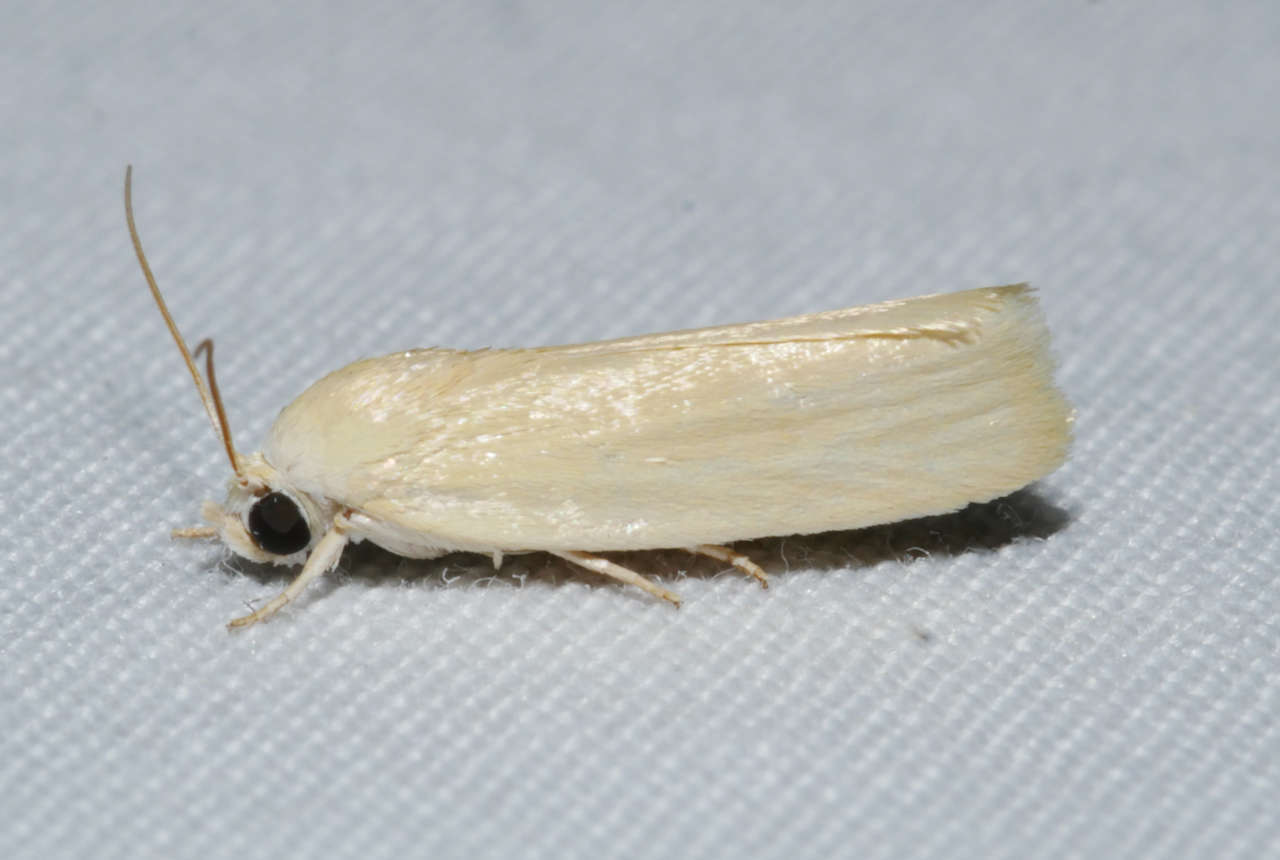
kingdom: Animalia
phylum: Arthropoda
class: Insecta
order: Lepidoptera
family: Nolidae
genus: Earias
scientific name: Earias chlorodes
